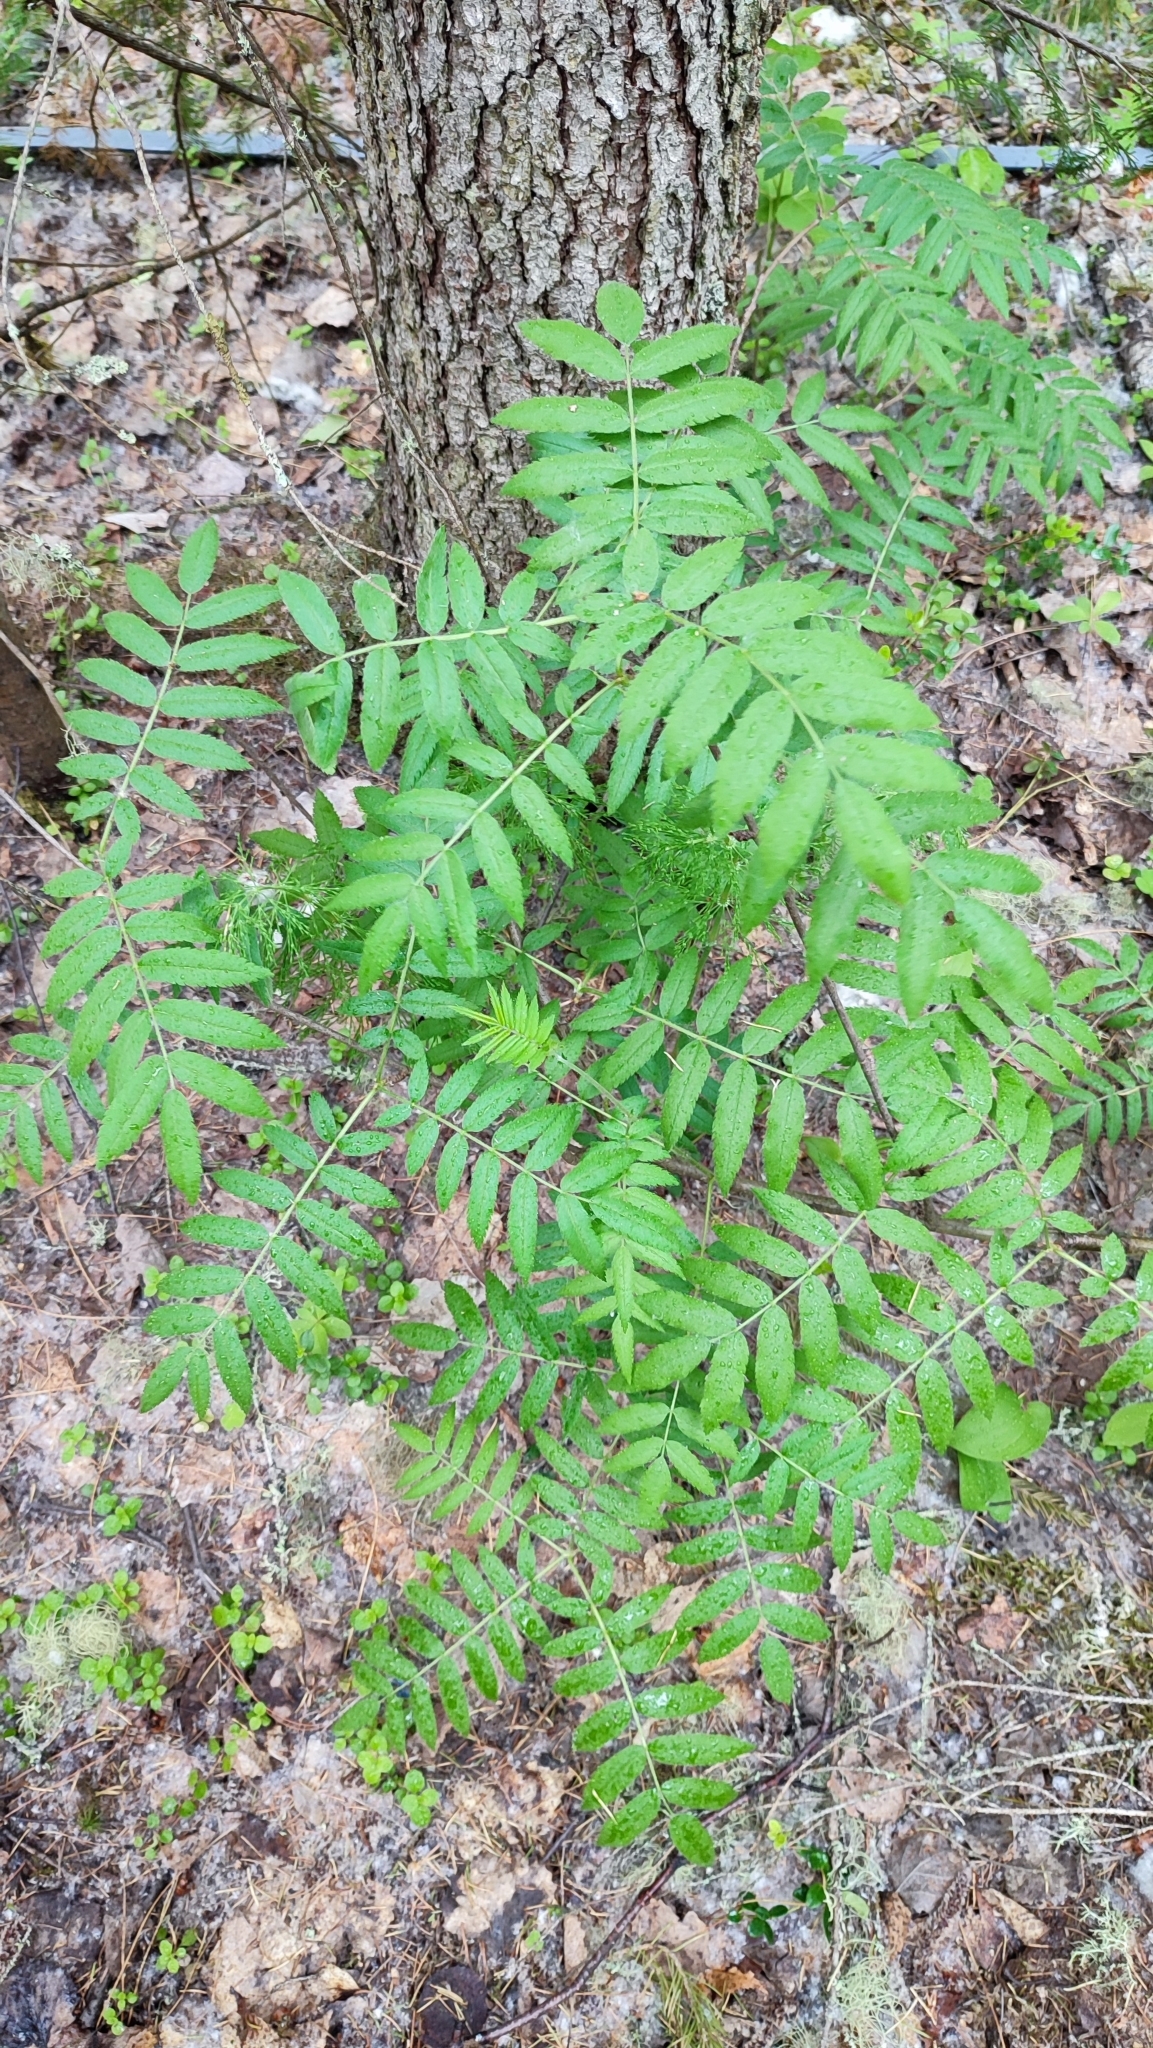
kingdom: Plantae
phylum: Tracheophyta
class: Magnoliopsida
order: Rosales
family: Rosaceae
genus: Sorbus
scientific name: Sorbus aucuparia
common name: Rowan
